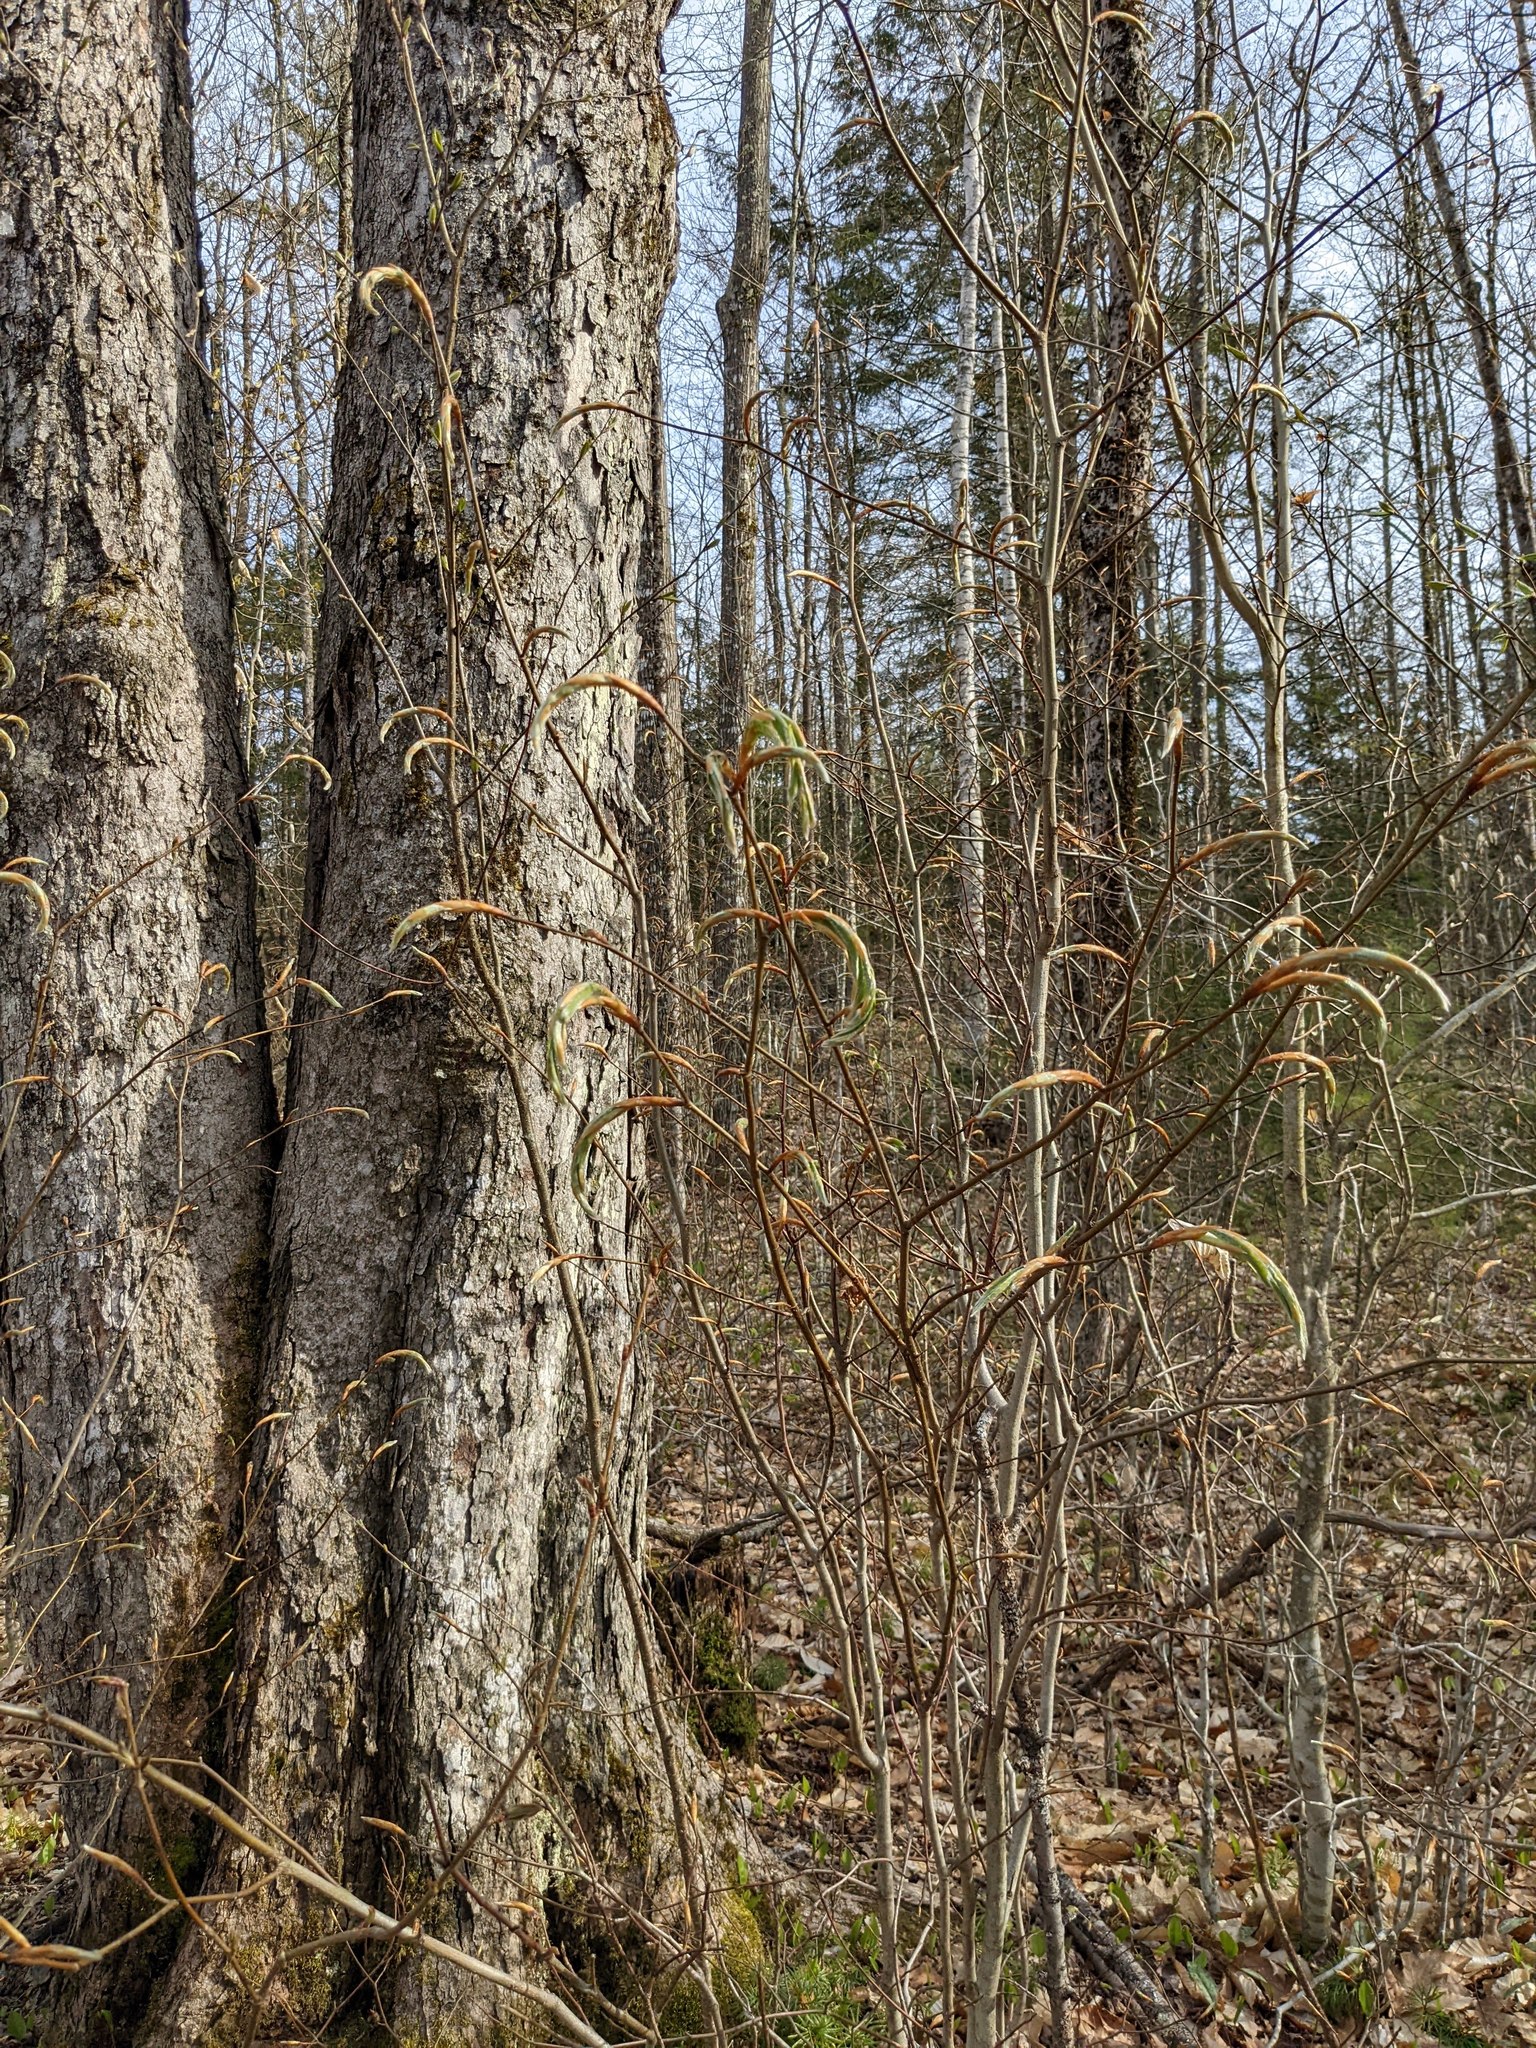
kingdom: Plantae
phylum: Tracheophyta
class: Magnoliopsida
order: Fagales
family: Fagaceae
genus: Fagus
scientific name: Fagus grandifolia
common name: American beech
